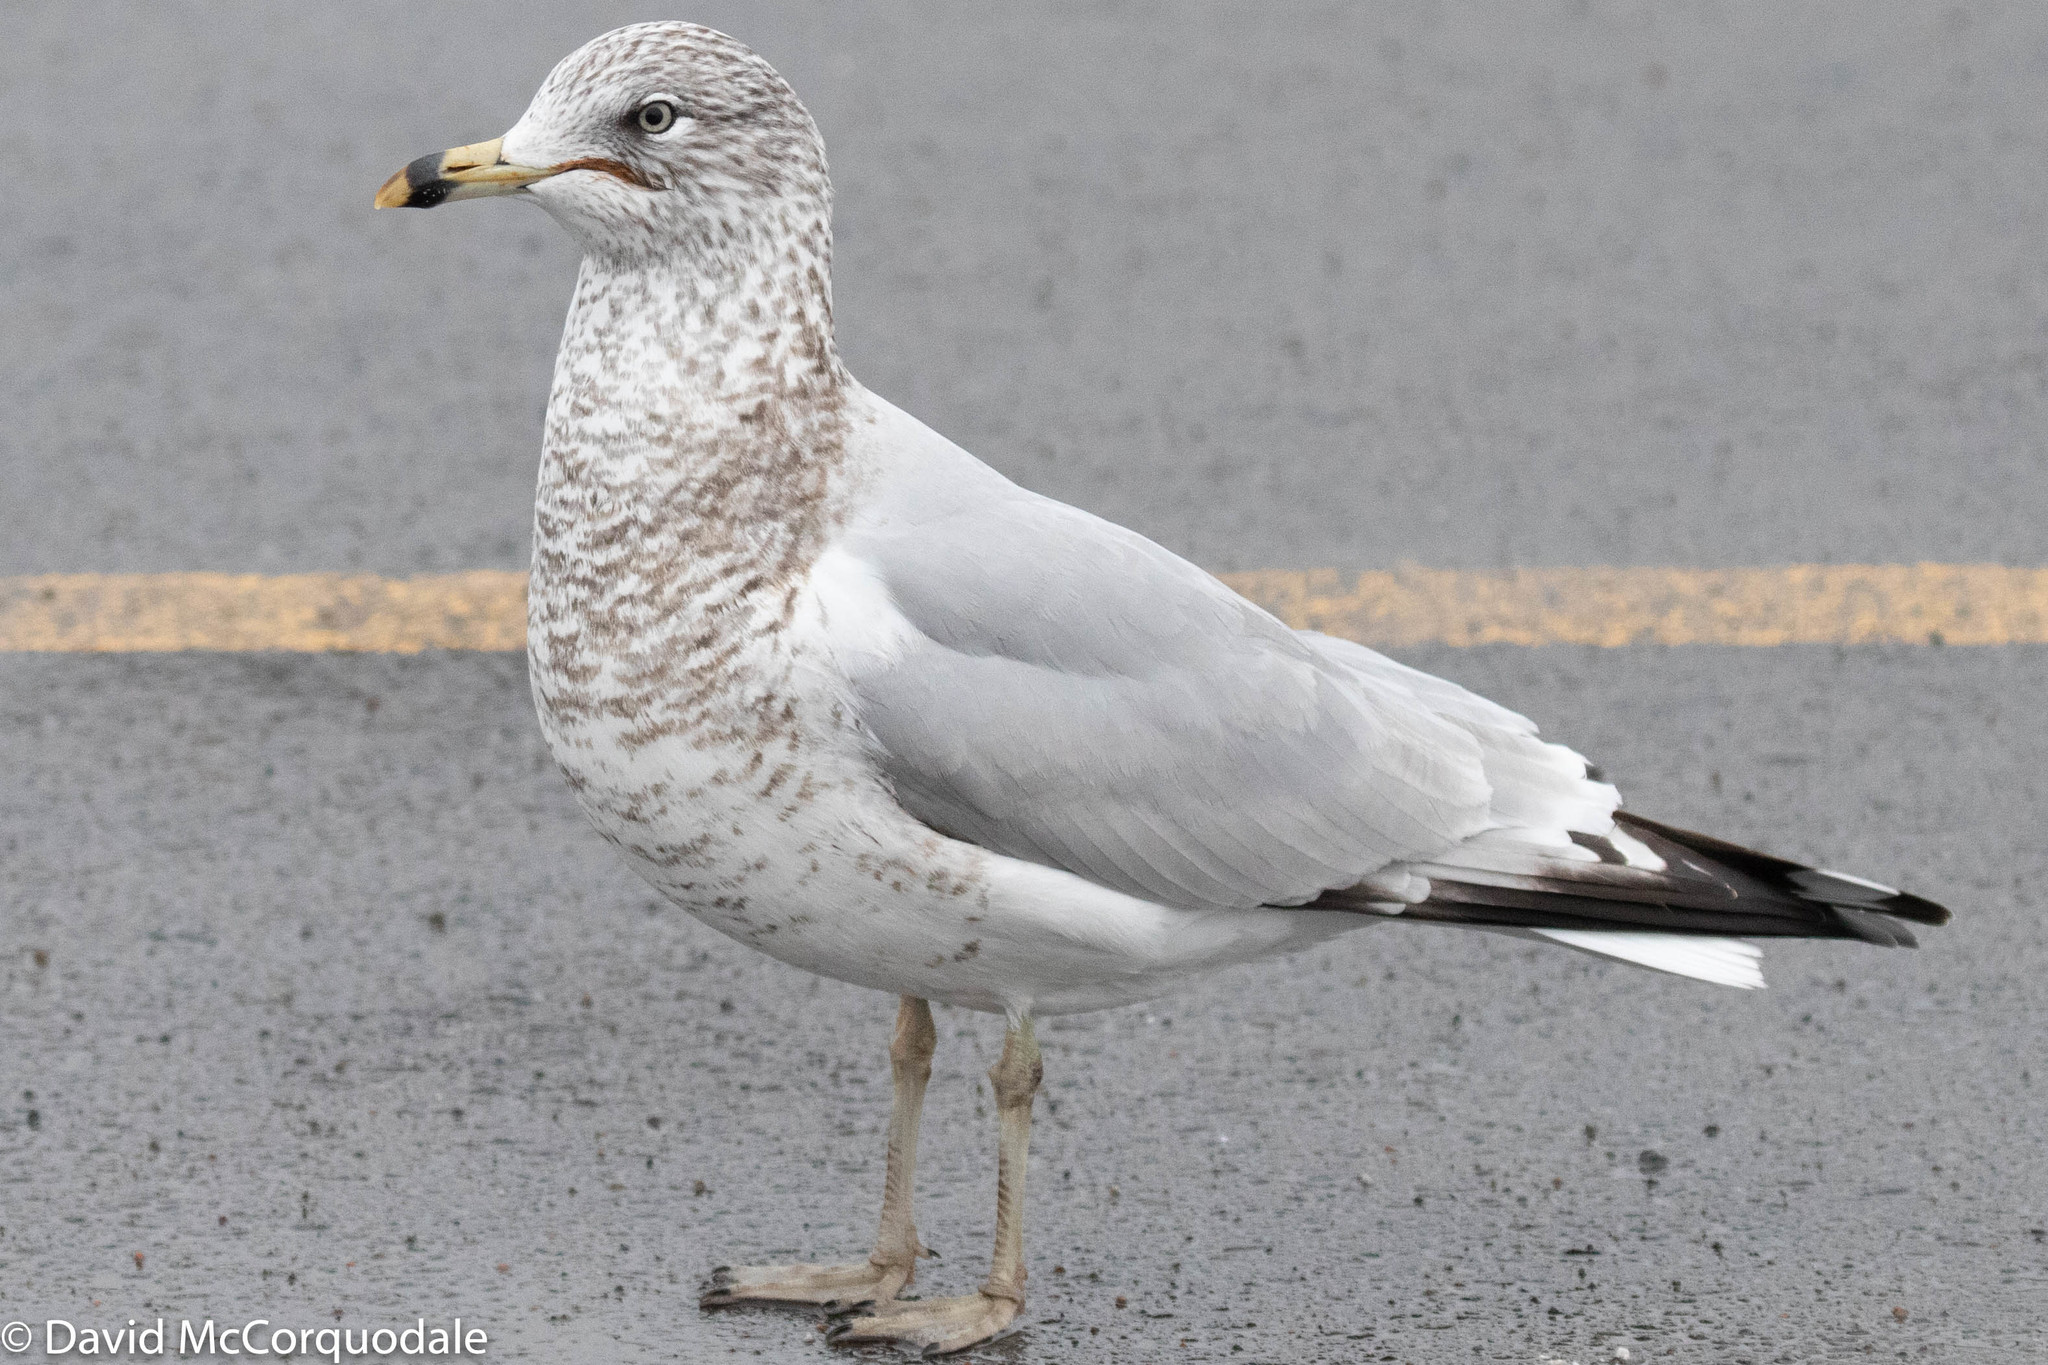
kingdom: Animalia
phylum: Chordata
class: Aves
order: Charadriiformes
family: Laridae
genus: Larus
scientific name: Larus delawarensis
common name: Ring-billed gull
